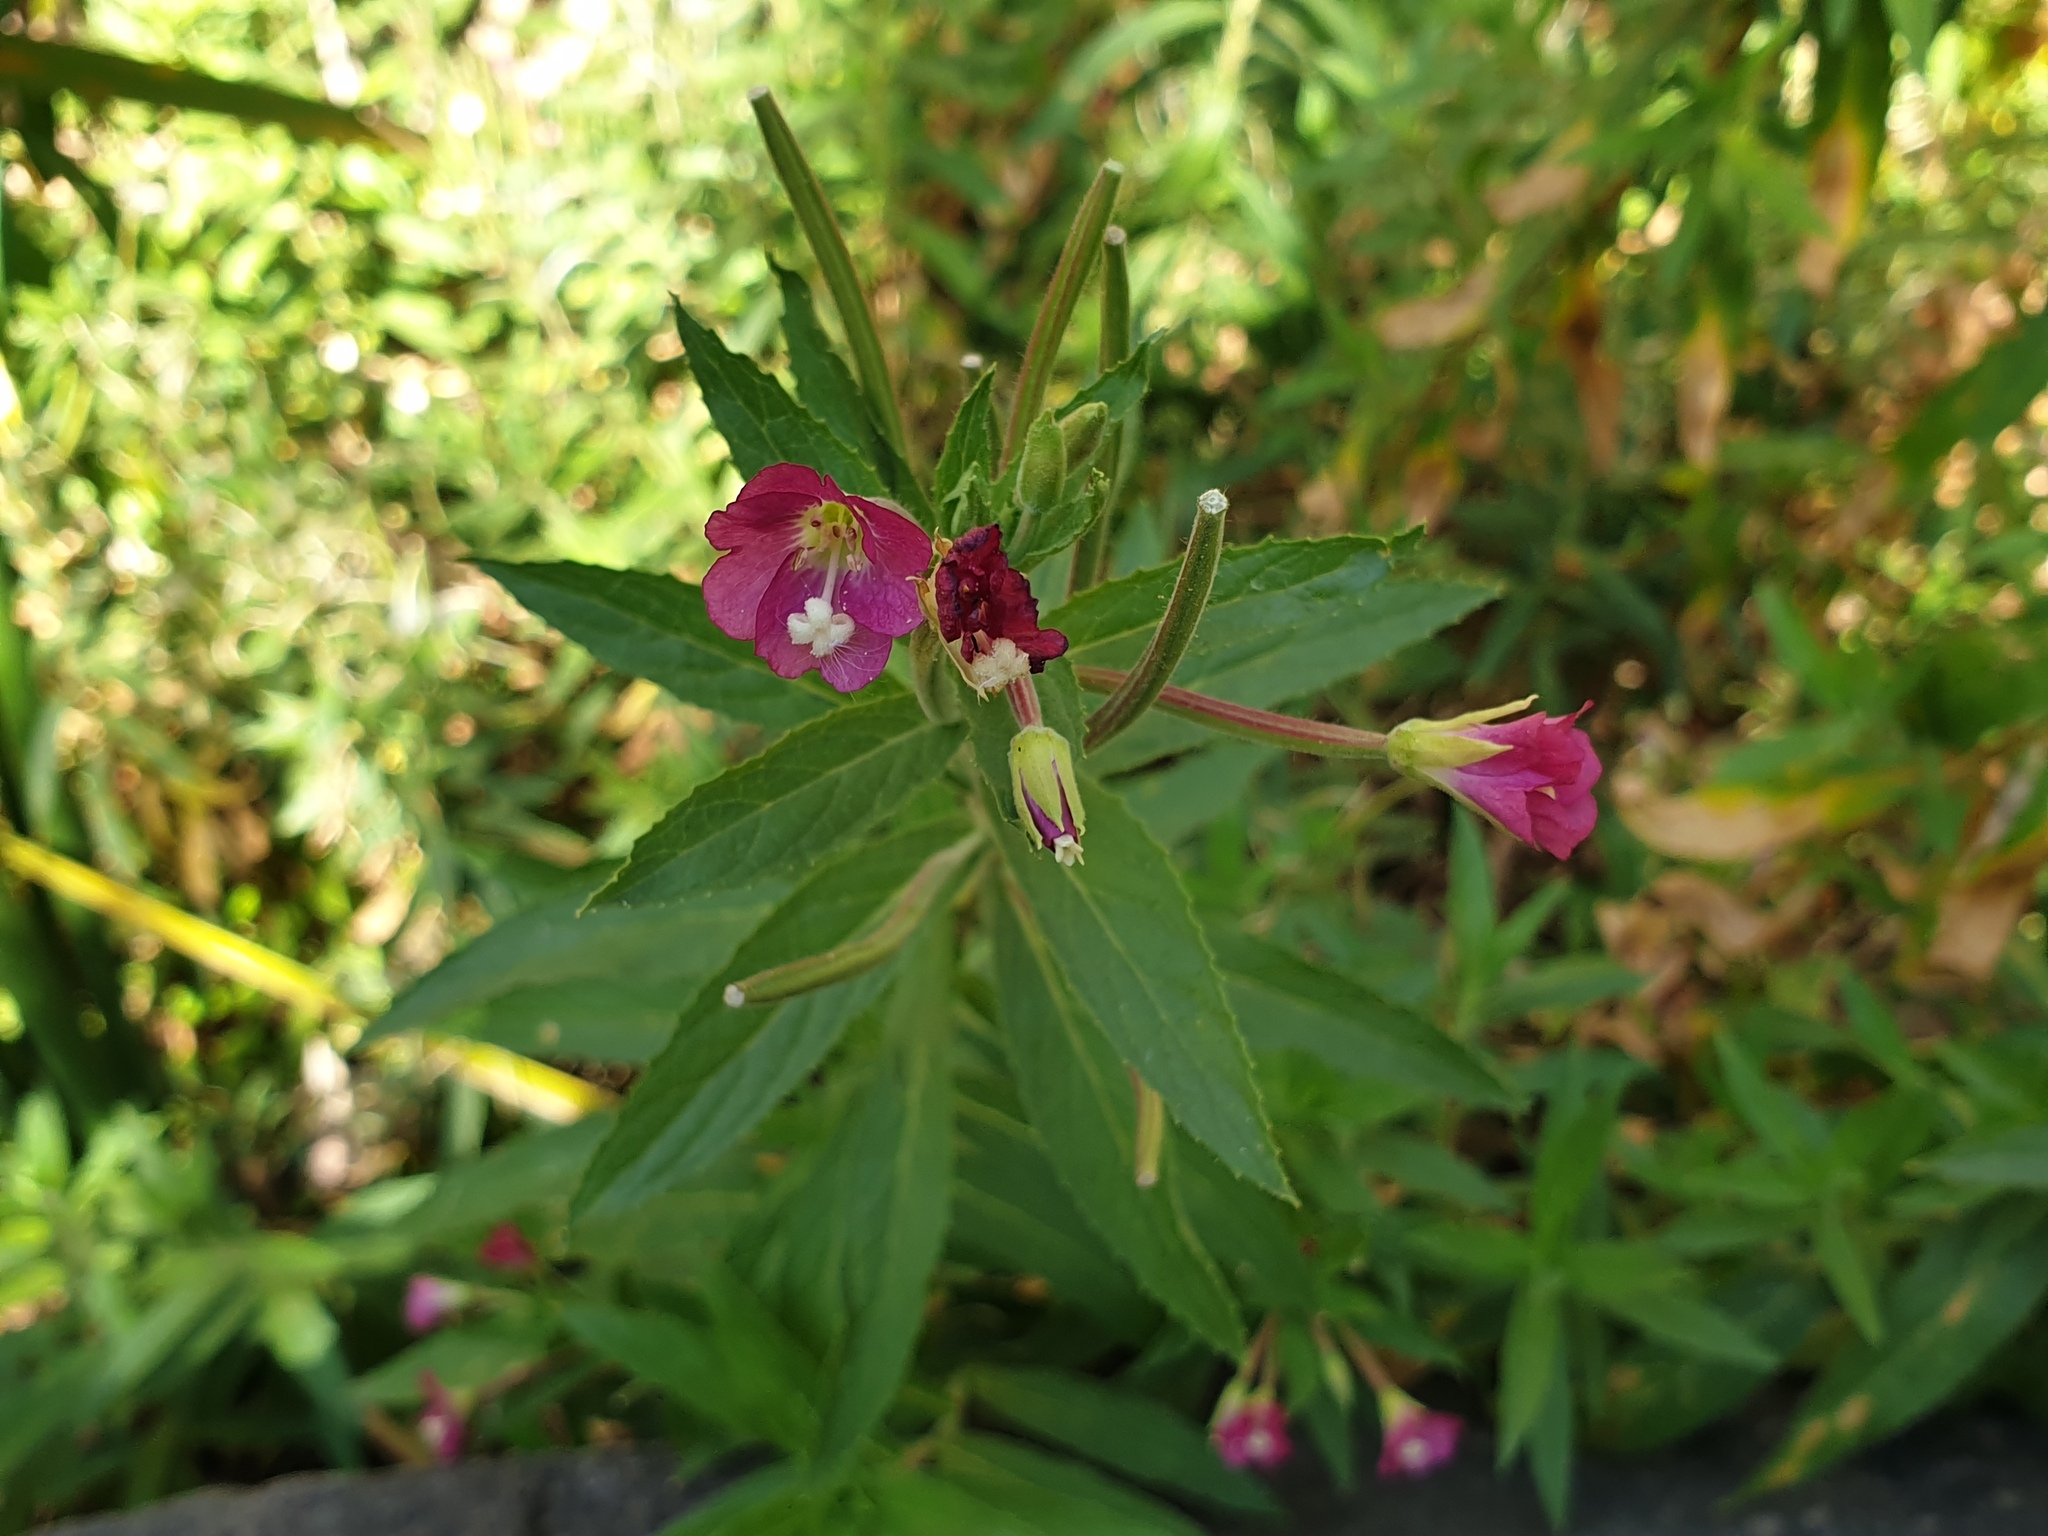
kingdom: Plantae
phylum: Tracheophyta
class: Magnoliopsida
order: Myrtales
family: Onagraceae
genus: Epilobium
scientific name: Epilobium hirsutum
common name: Great willowherb
